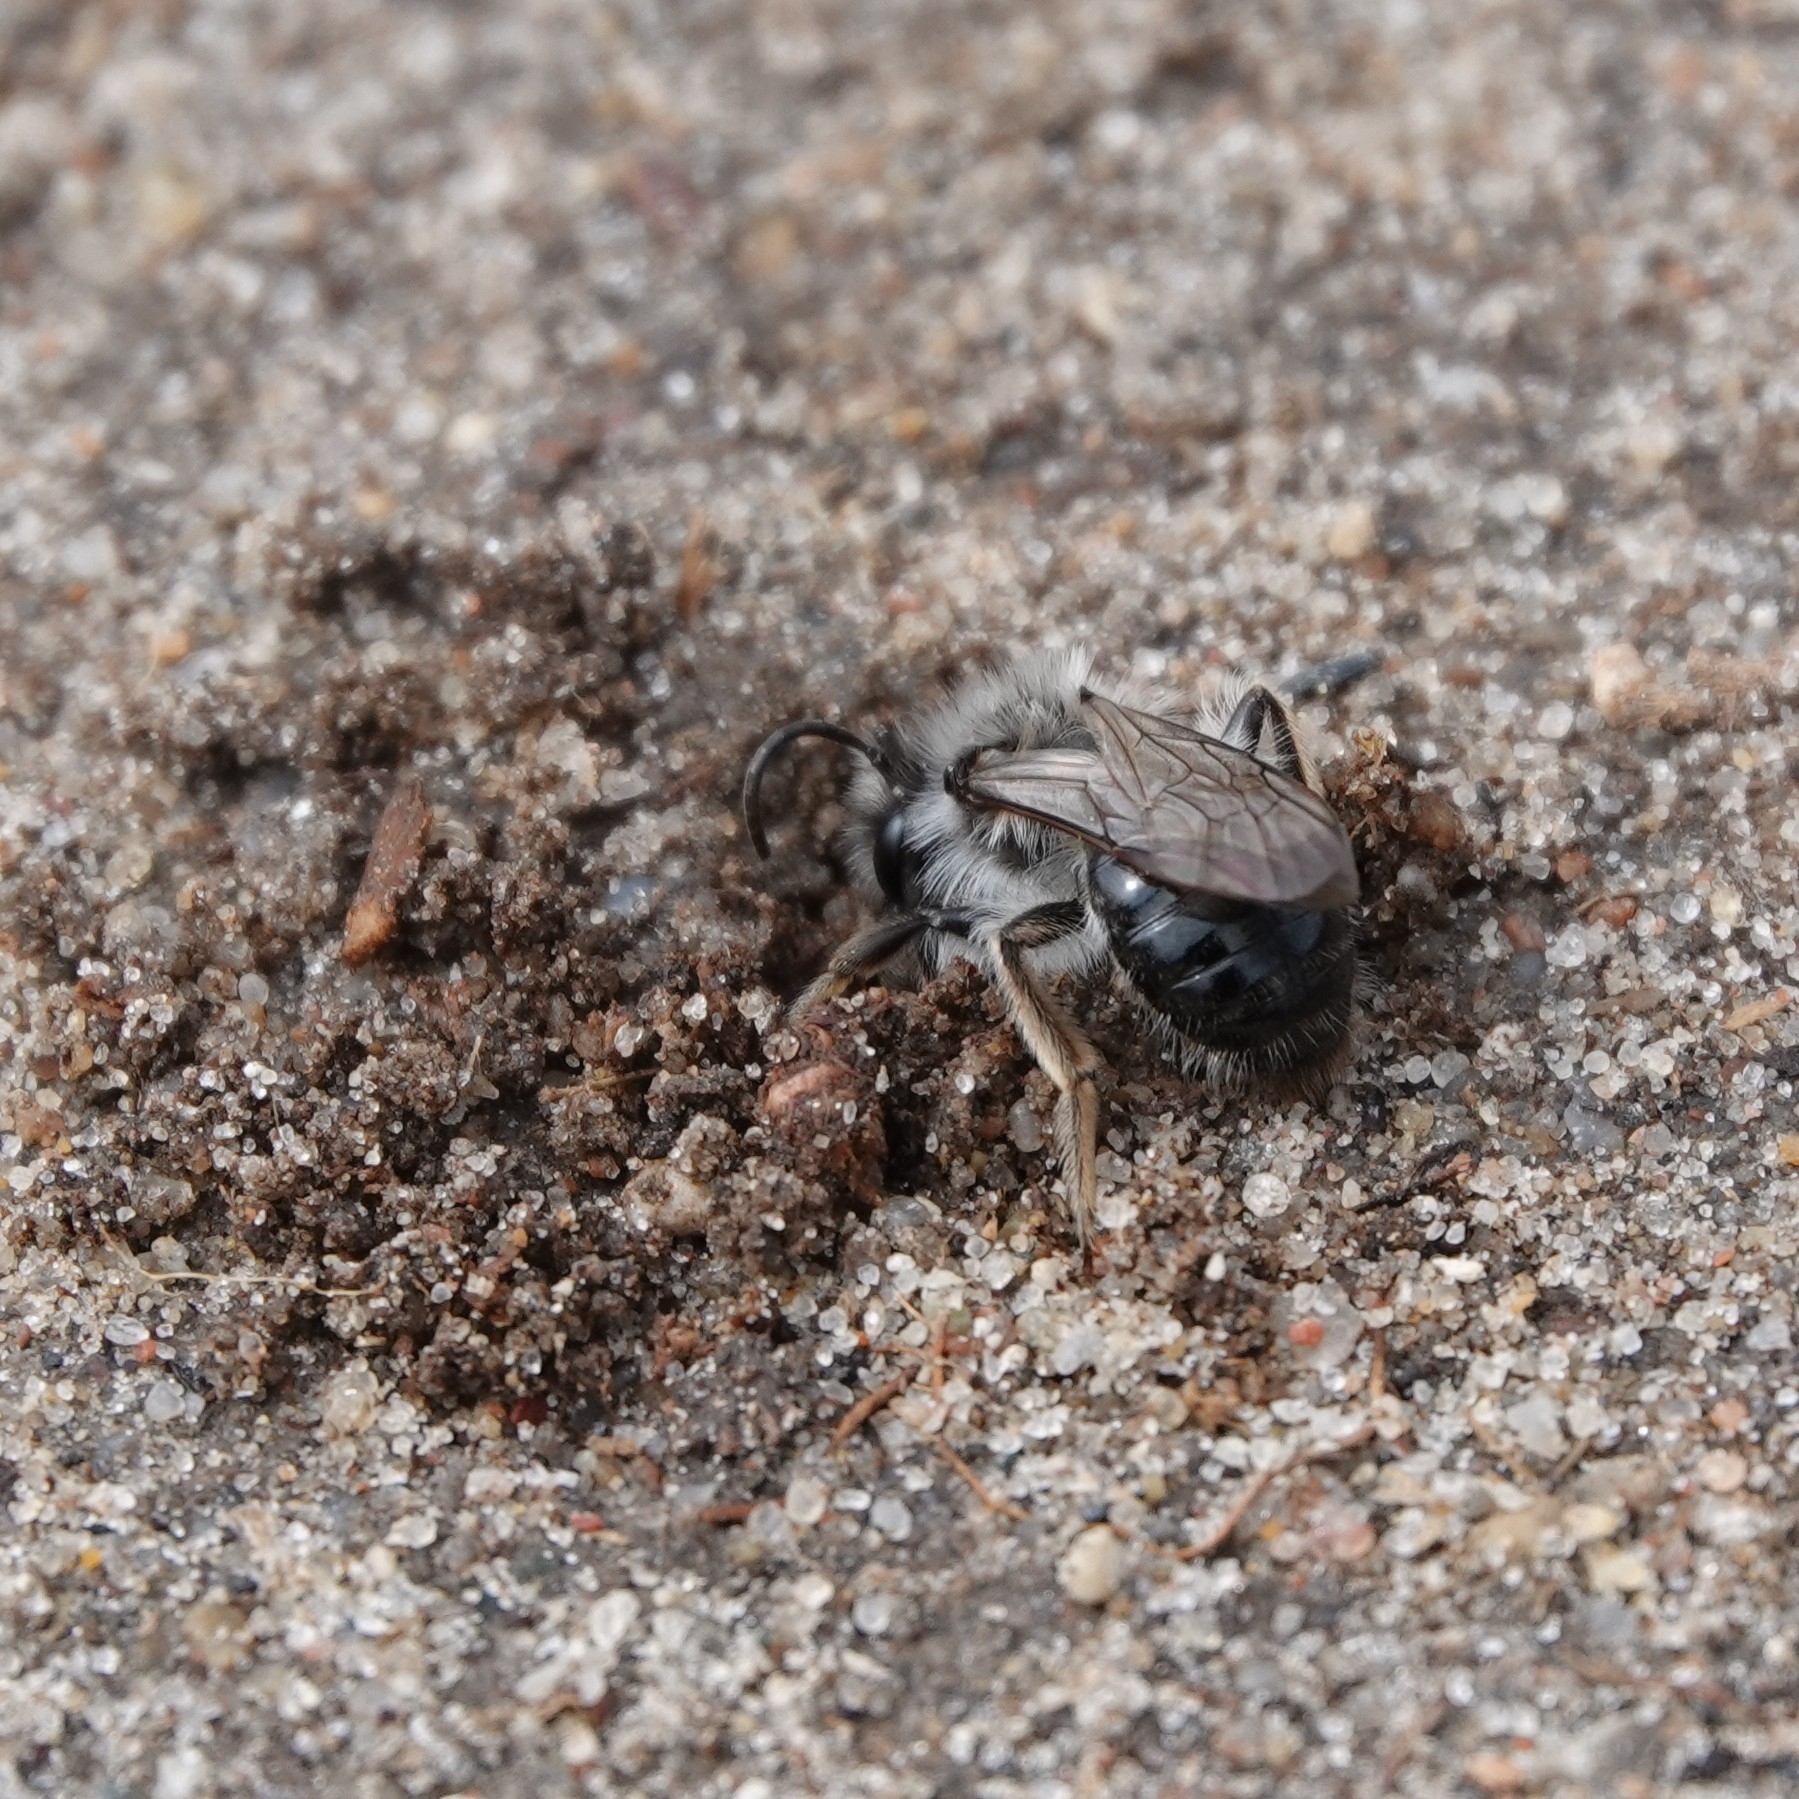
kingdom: Animalia
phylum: Arthropoda
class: Insecta
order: Hymenoptera
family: Andrenidae
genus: Andrena
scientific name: Andrena vaga
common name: Grey-backed mining bee
